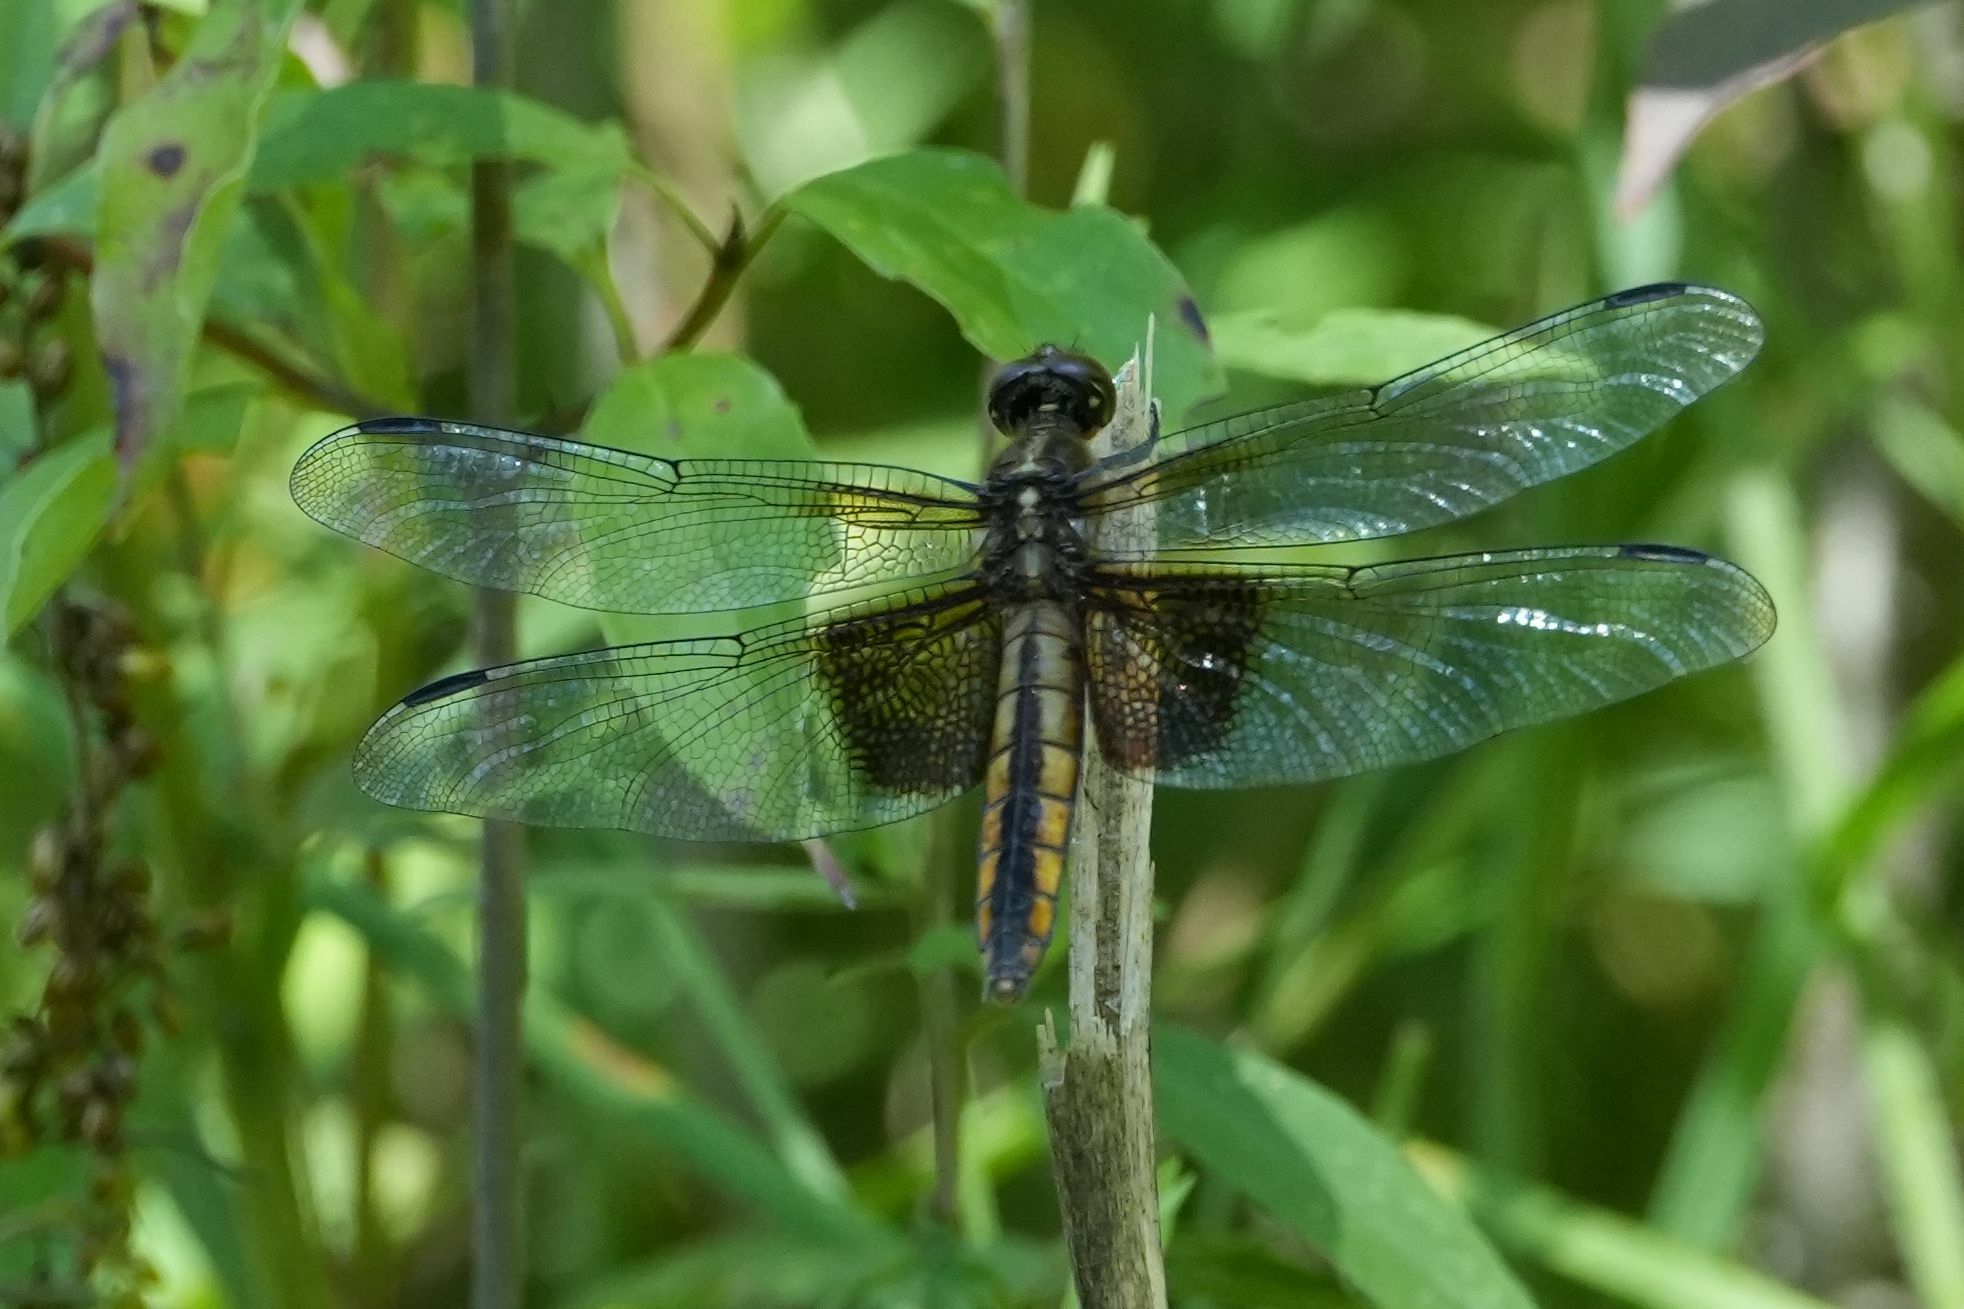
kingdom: Animalia
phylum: Arthropoda
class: Insecta
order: Odonata
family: Libellulidae
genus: Libellula
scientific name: Libellula luctuosa
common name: Widow skimmer
